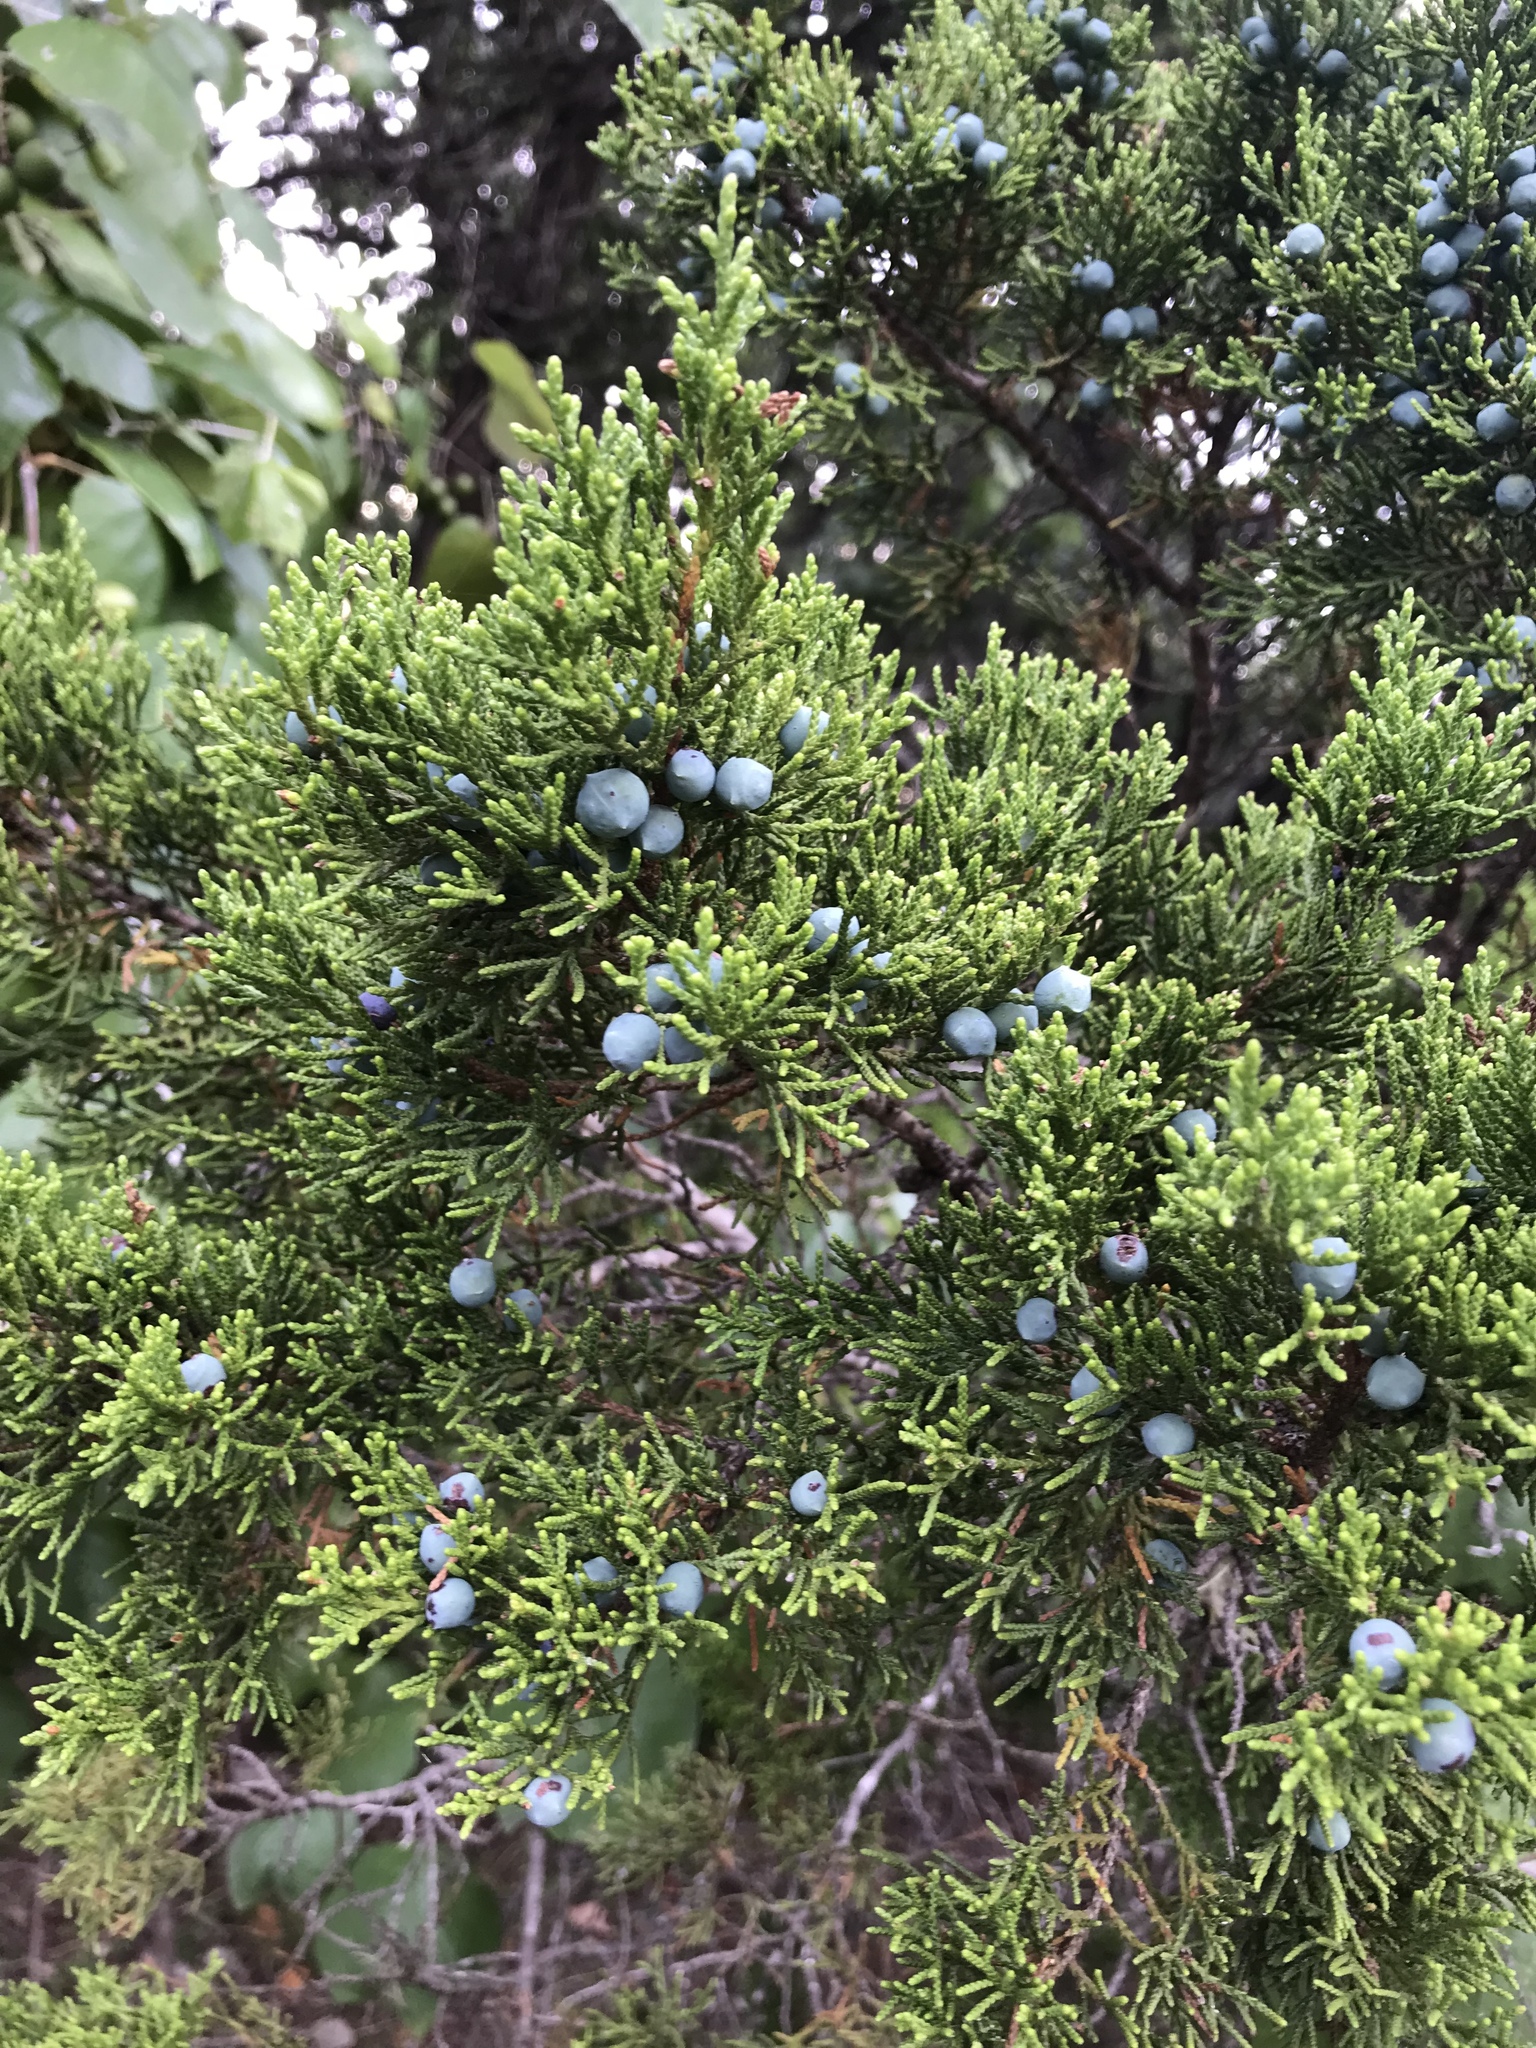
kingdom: Plantae
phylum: Tracheophyta
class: Pinopsida
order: Pinales
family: Cupressaceae
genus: Juniperus
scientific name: Juniperus ashei
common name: Mexican juniper
